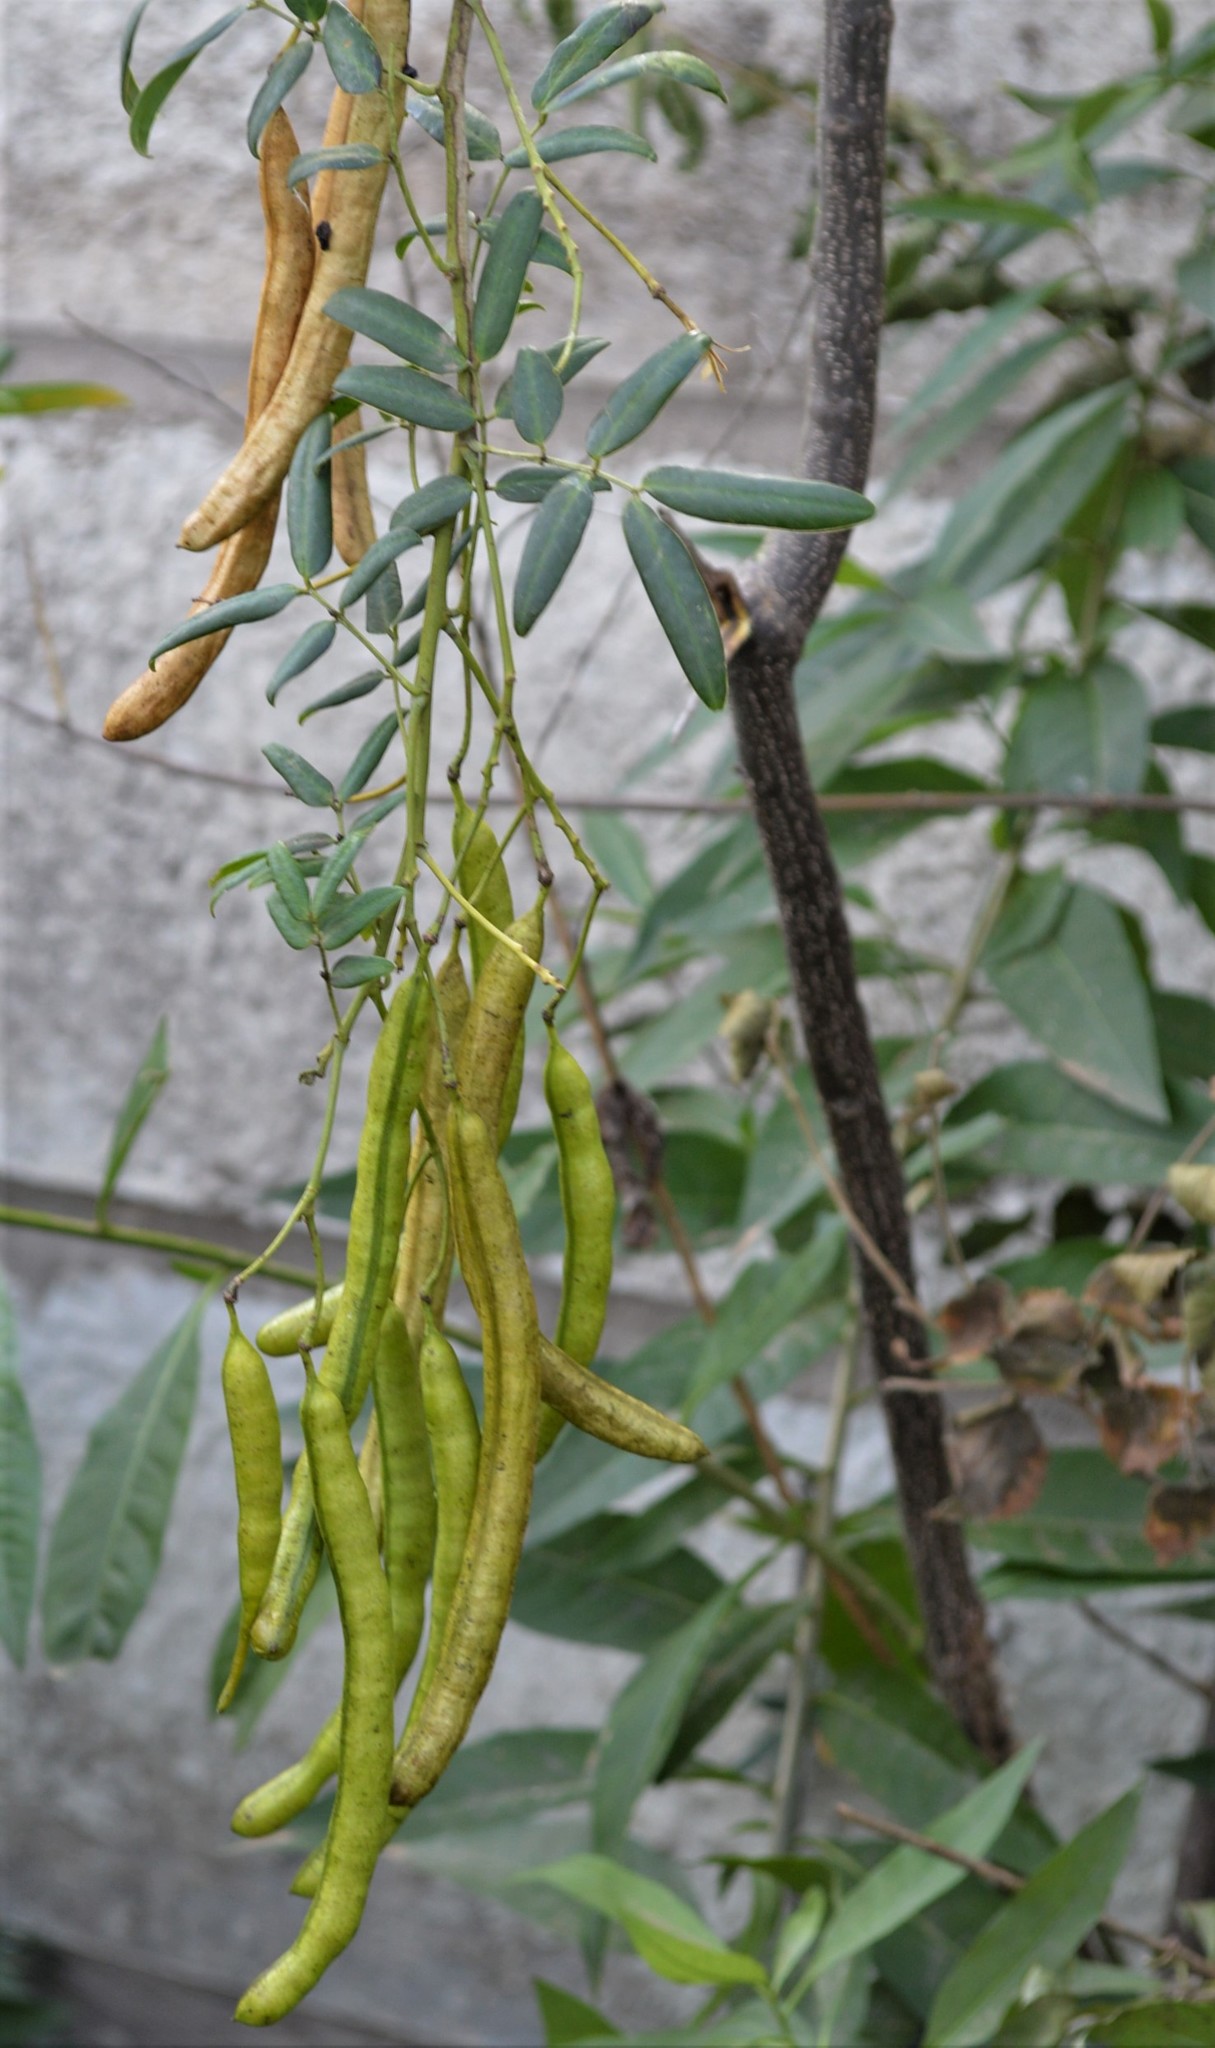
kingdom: Plantae
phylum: Tracheophyta
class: Magnoliopsida
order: Fabales
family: Fabaceae
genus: Senna
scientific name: Senna corymbosa
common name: Argentine senna
